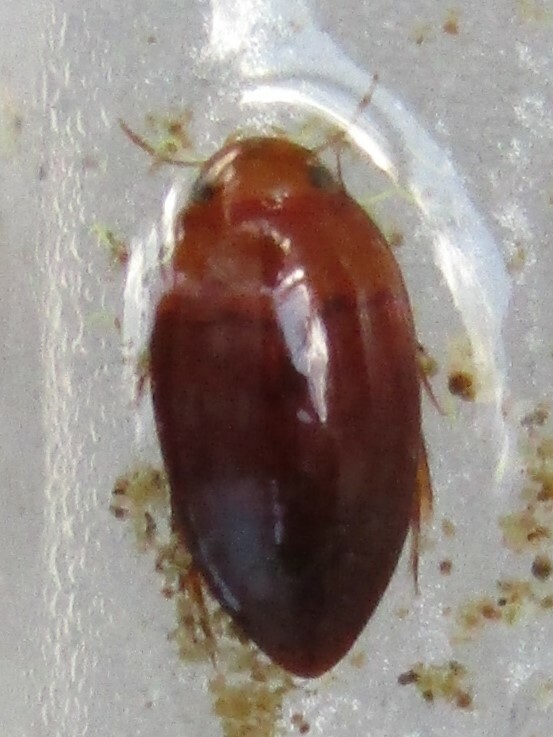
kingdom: Animalia
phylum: Arthropoda
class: Insecta
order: Coleoptera
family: Noteridae
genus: Hydrocanthus
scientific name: Hydrocanthus
